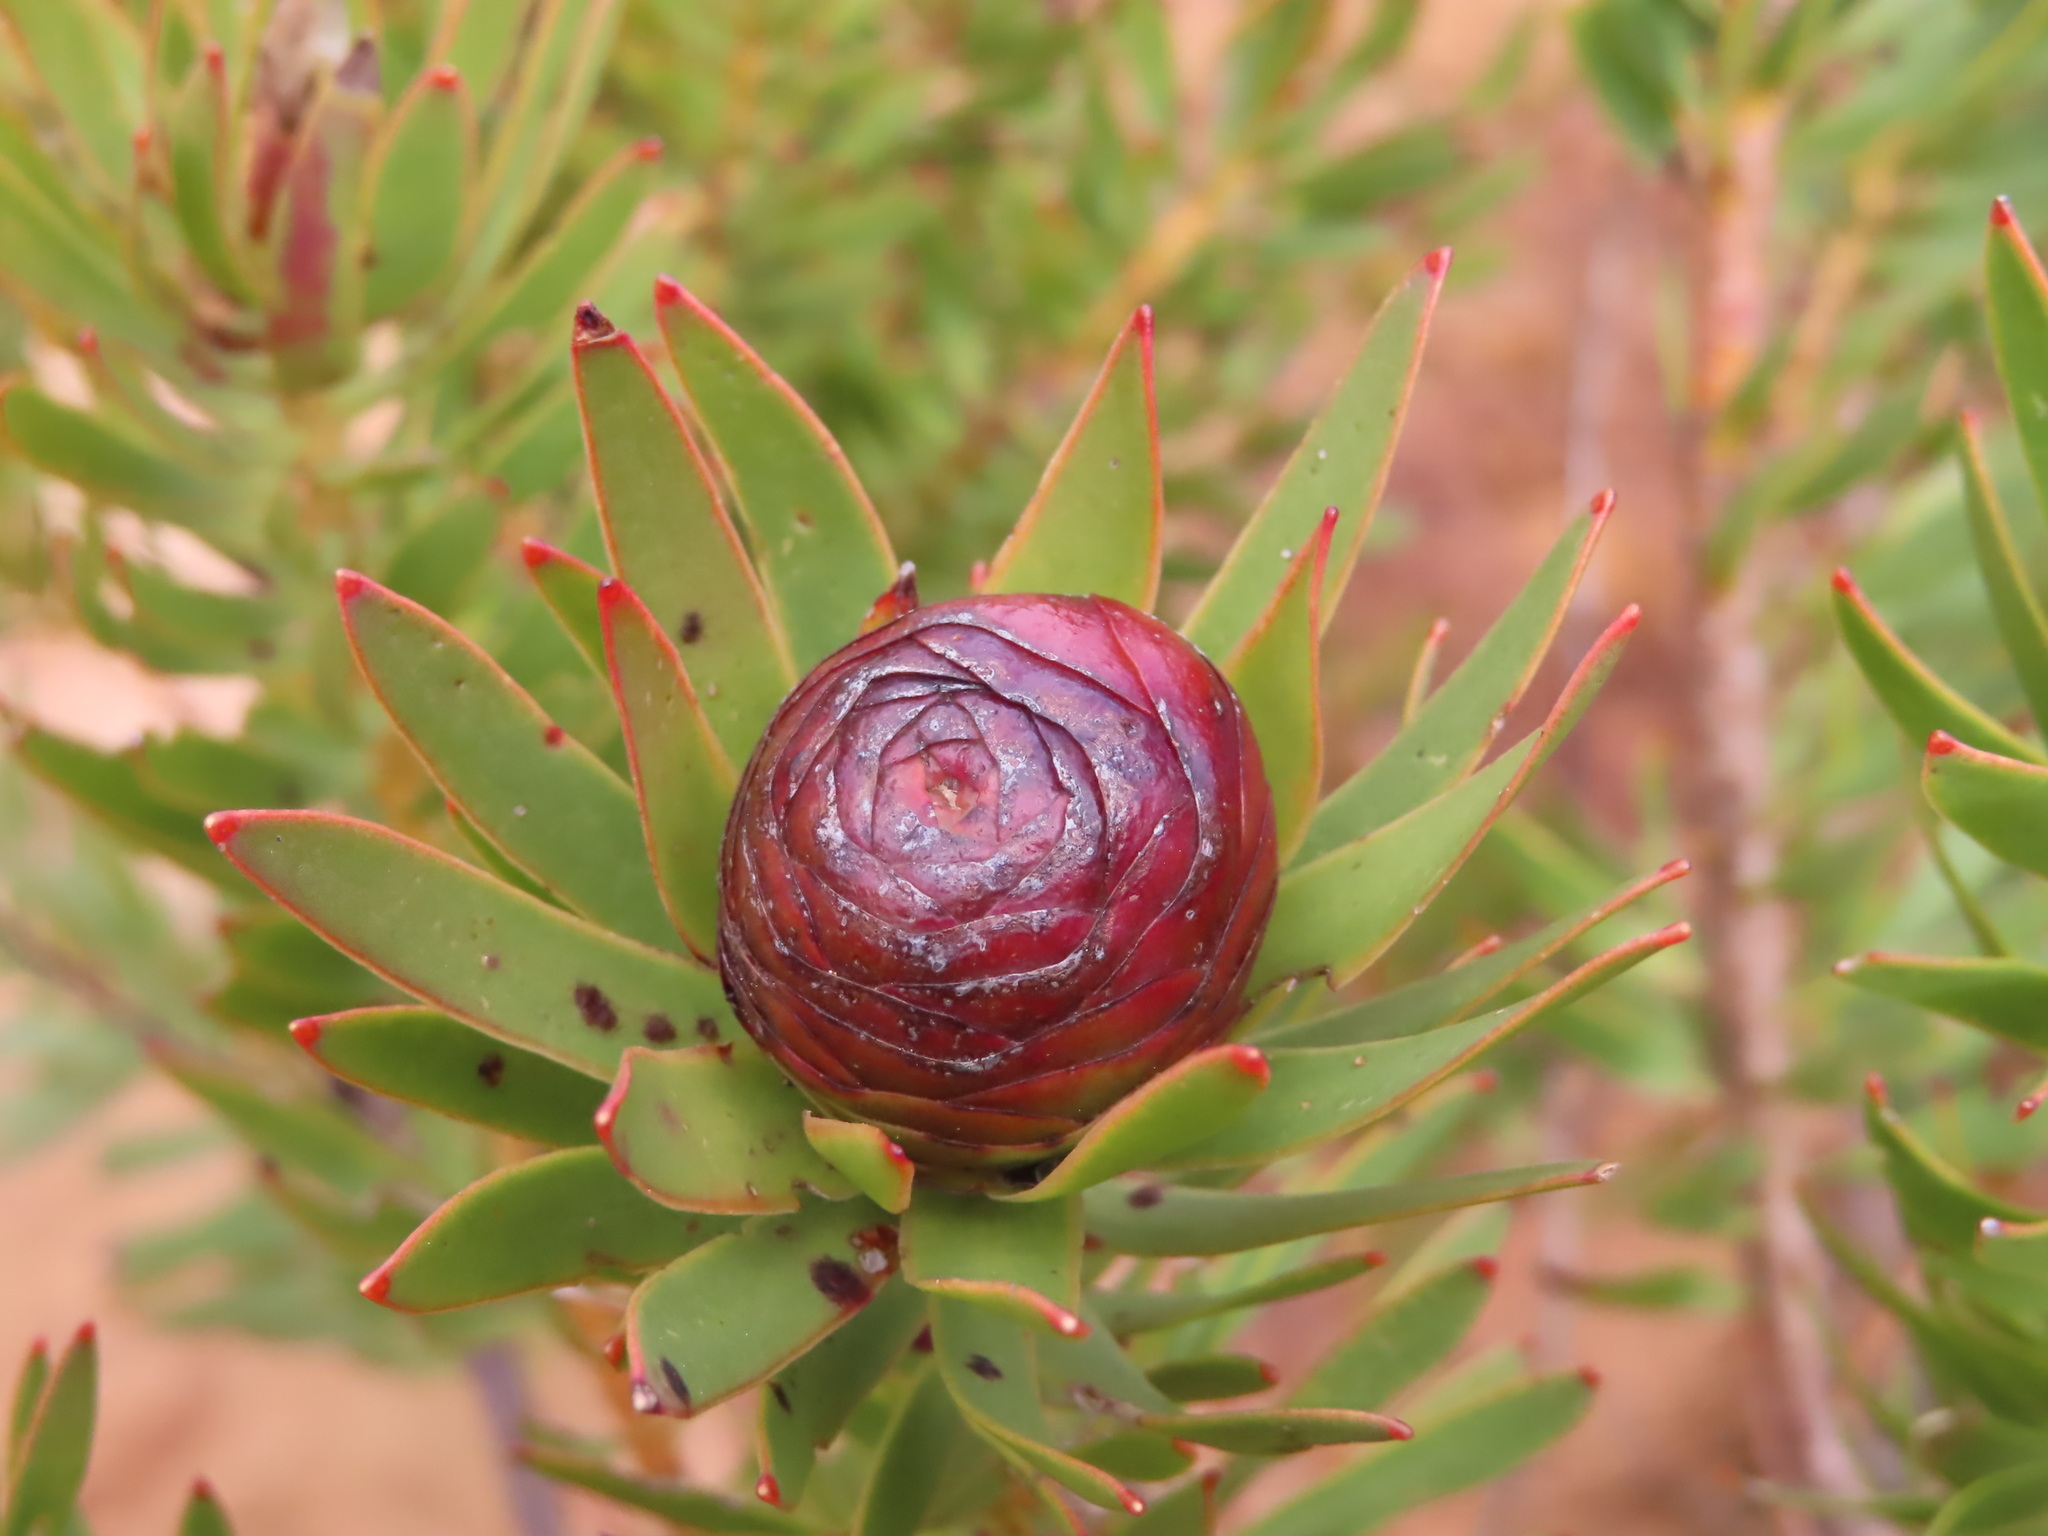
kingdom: Plantae
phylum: Tracheophyta
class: Magnoliopsida
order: Proteales
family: Proteaceae
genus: Leucadendron
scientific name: Leucadendron spissifolium
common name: Spear-leaf conebush
